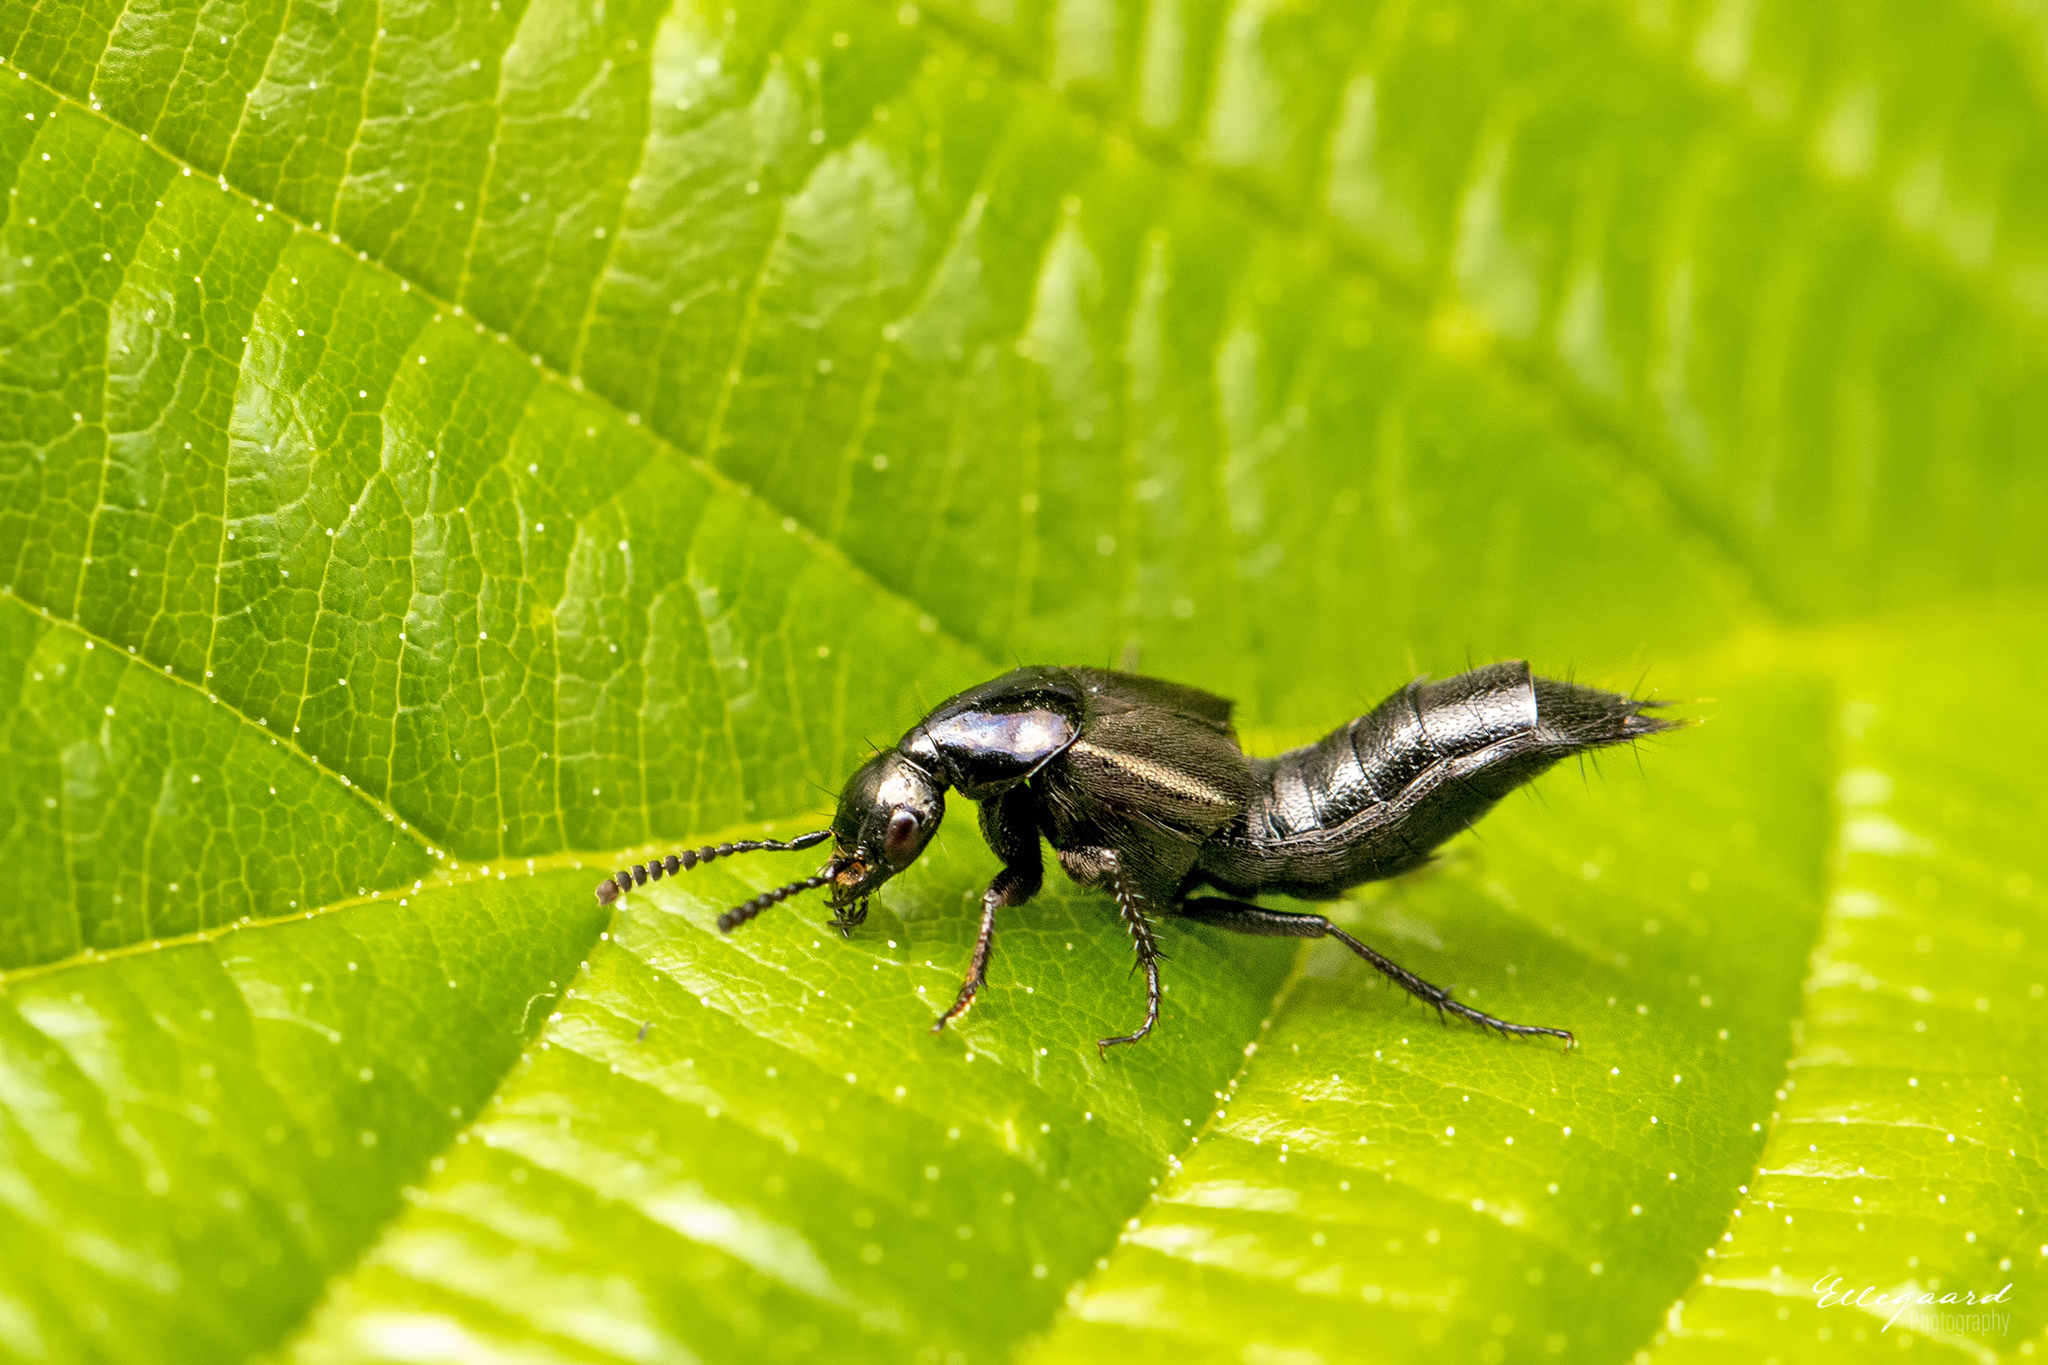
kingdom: Animalia
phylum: Arthropoda
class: Insecta
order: Coleoptera
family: Staphylinidae
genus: Philonthus
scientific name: Philonthus succicola
